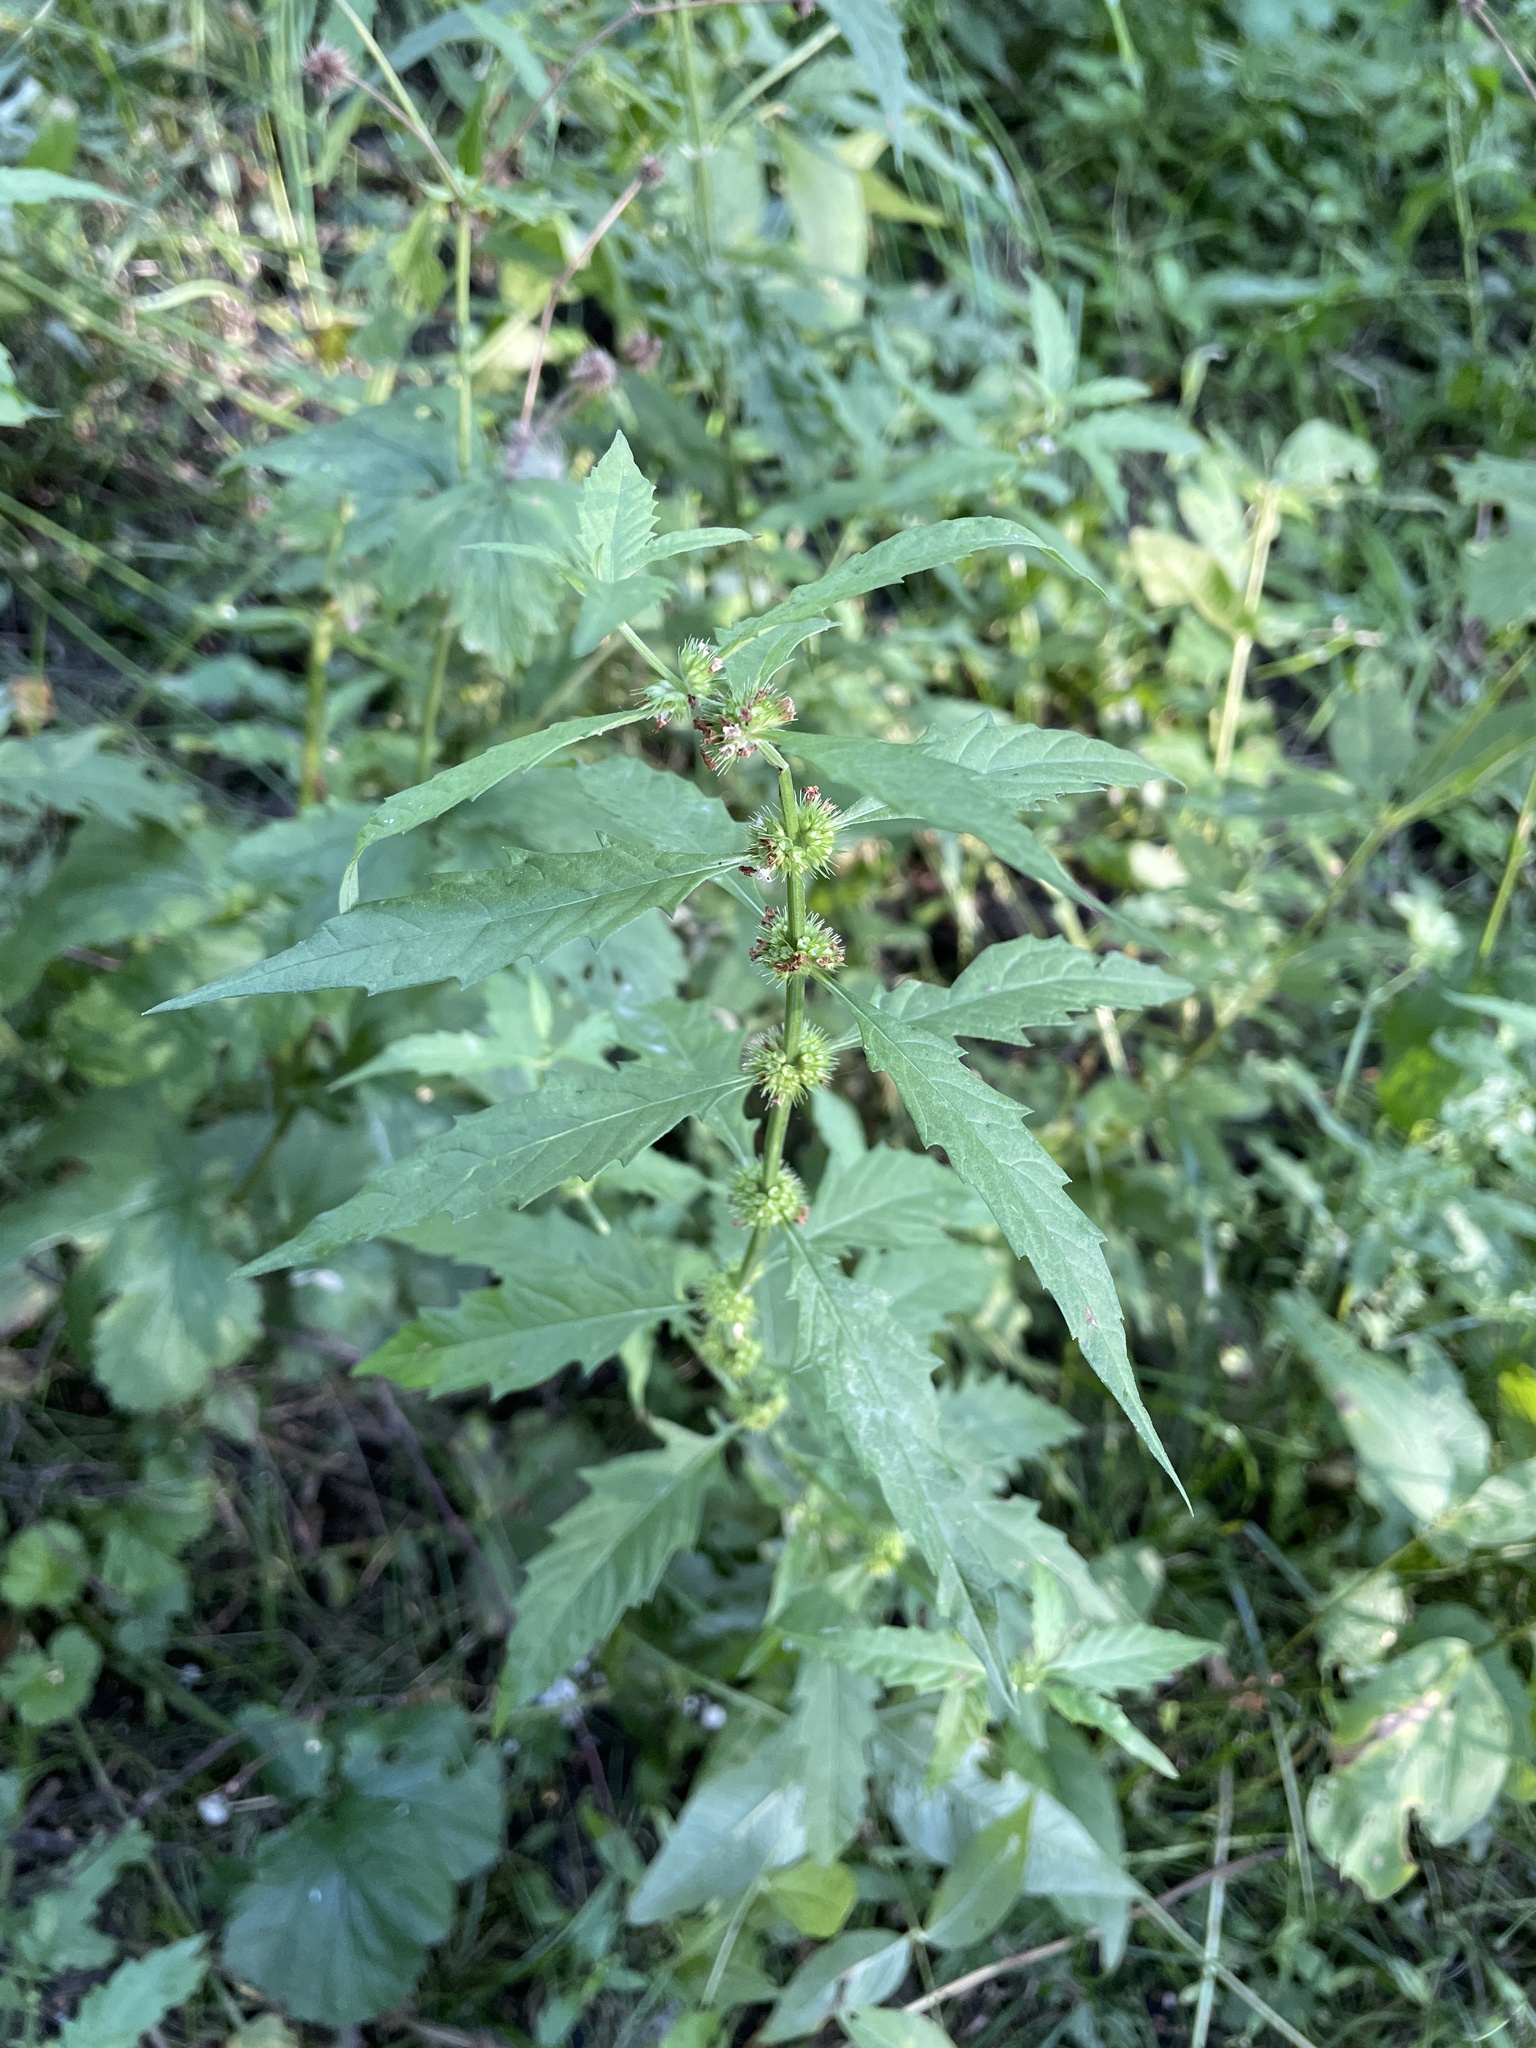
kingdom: Plantae
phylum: Tracheophyta
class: Magnoliopsida
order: Lamiales
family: Lamiaceae
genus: Lycopus
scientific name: Lycopus europaeus
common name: European bugleweed
